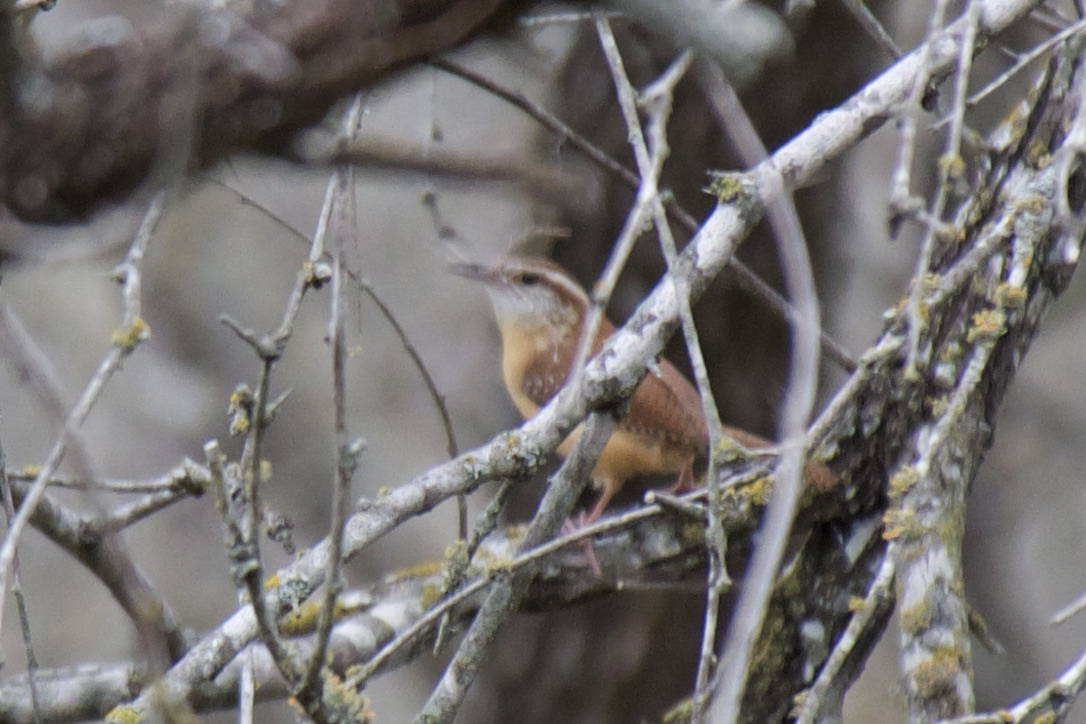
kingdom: Animalia
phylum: Chordata
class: Aves
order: Passeriformes
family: Troglodytidae
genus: Thryothorus
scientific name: Thryothorus ludovicianus
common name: Carolina wren
